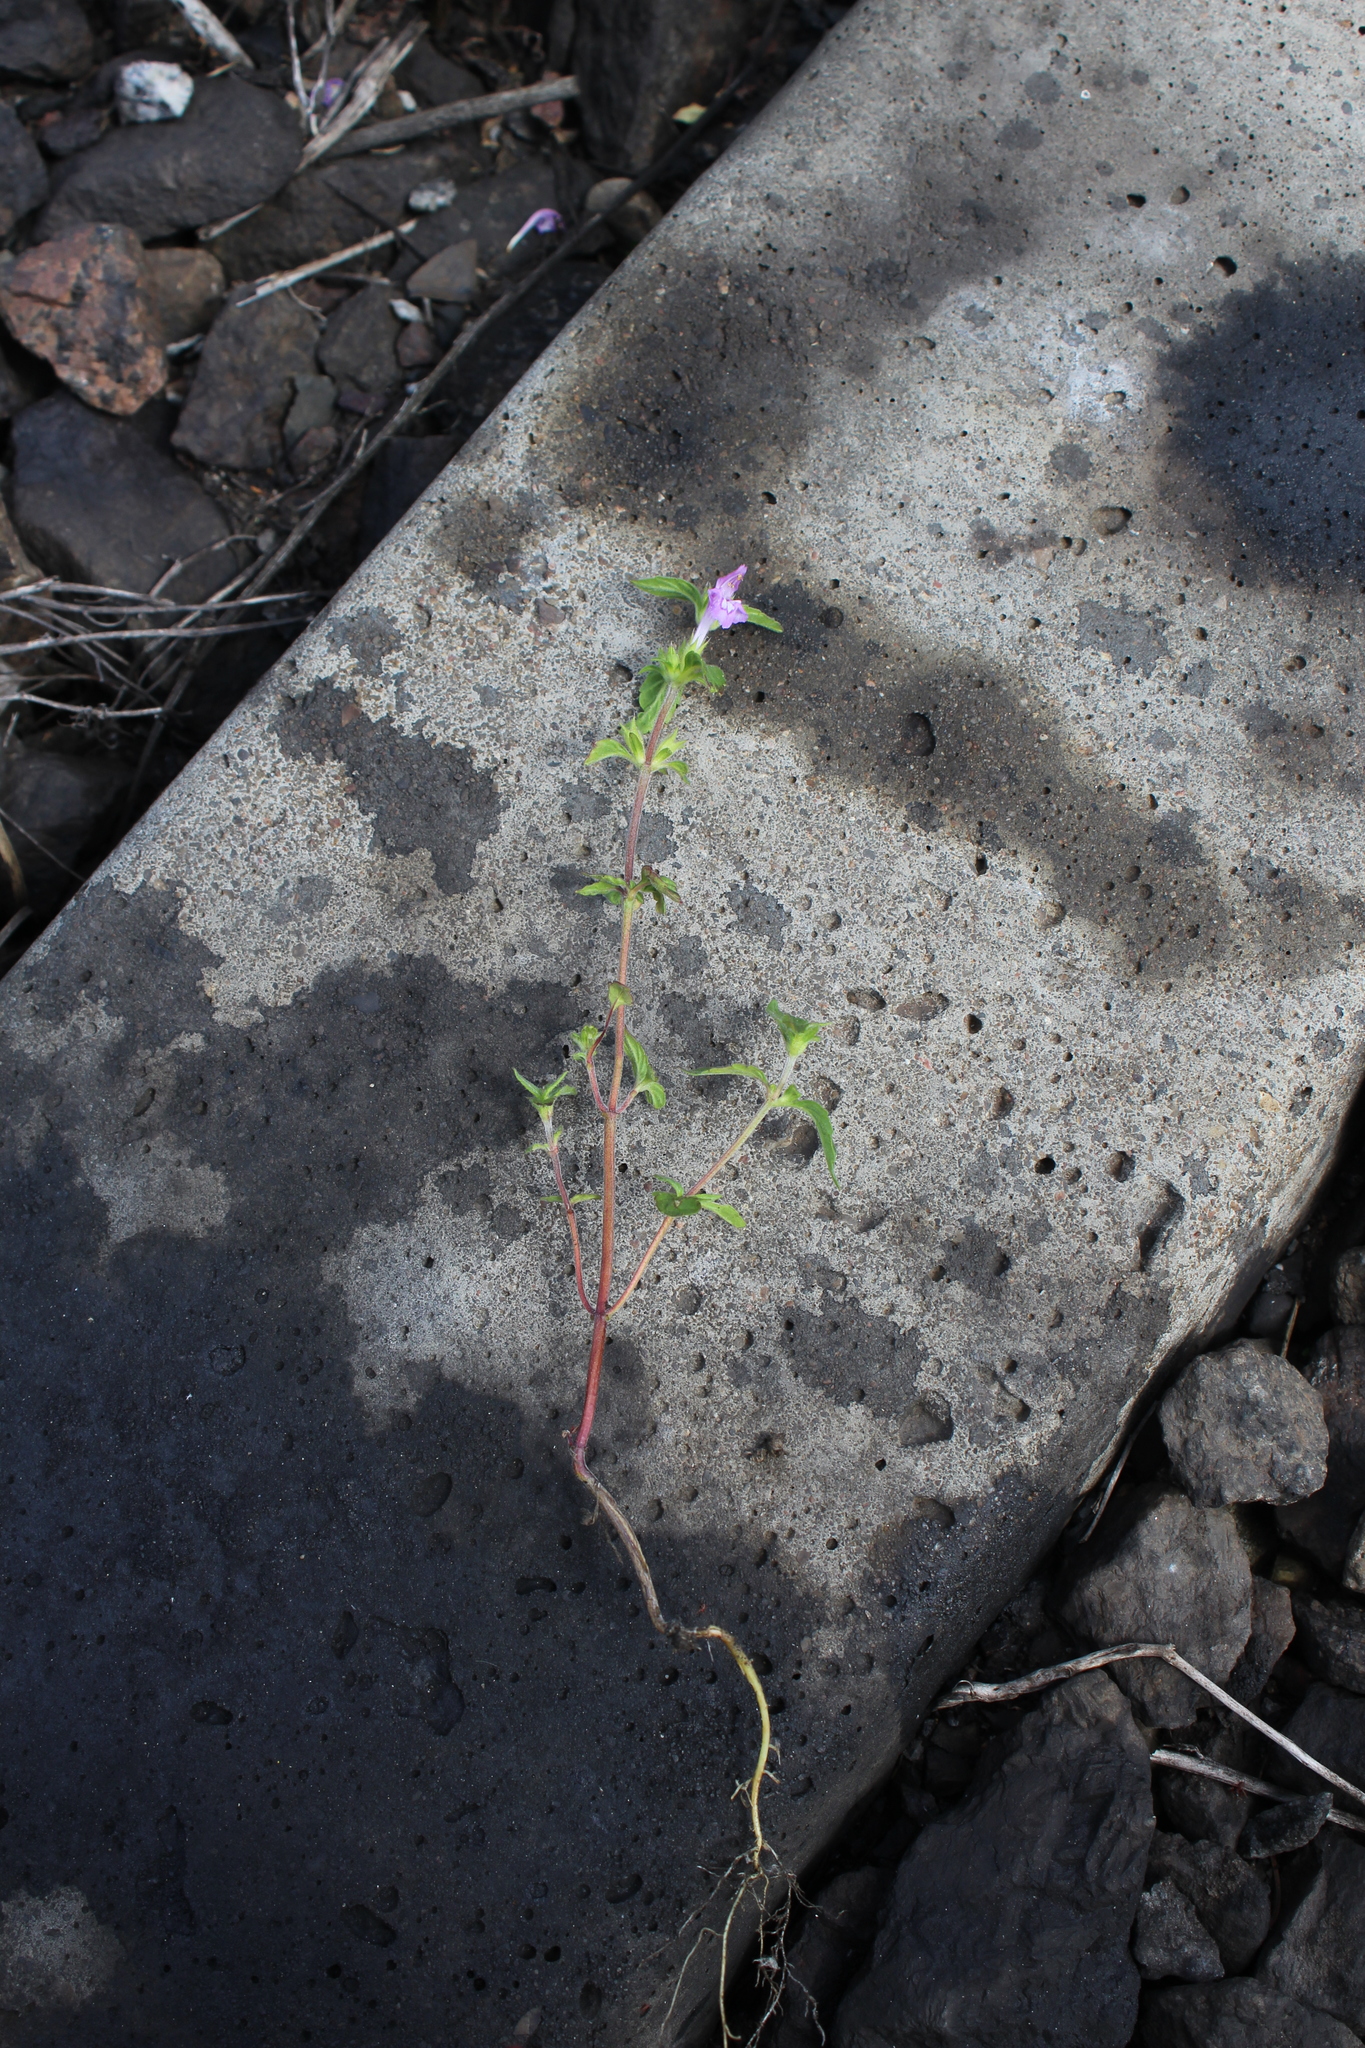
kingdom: Plantae
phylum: Tracheophyta
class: Magnoliopsida
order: Lamiales
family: Lamiaceae
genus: Galeopsis
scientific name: Galeopsis ladanum
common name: Broad-leaved hemp-nettle
